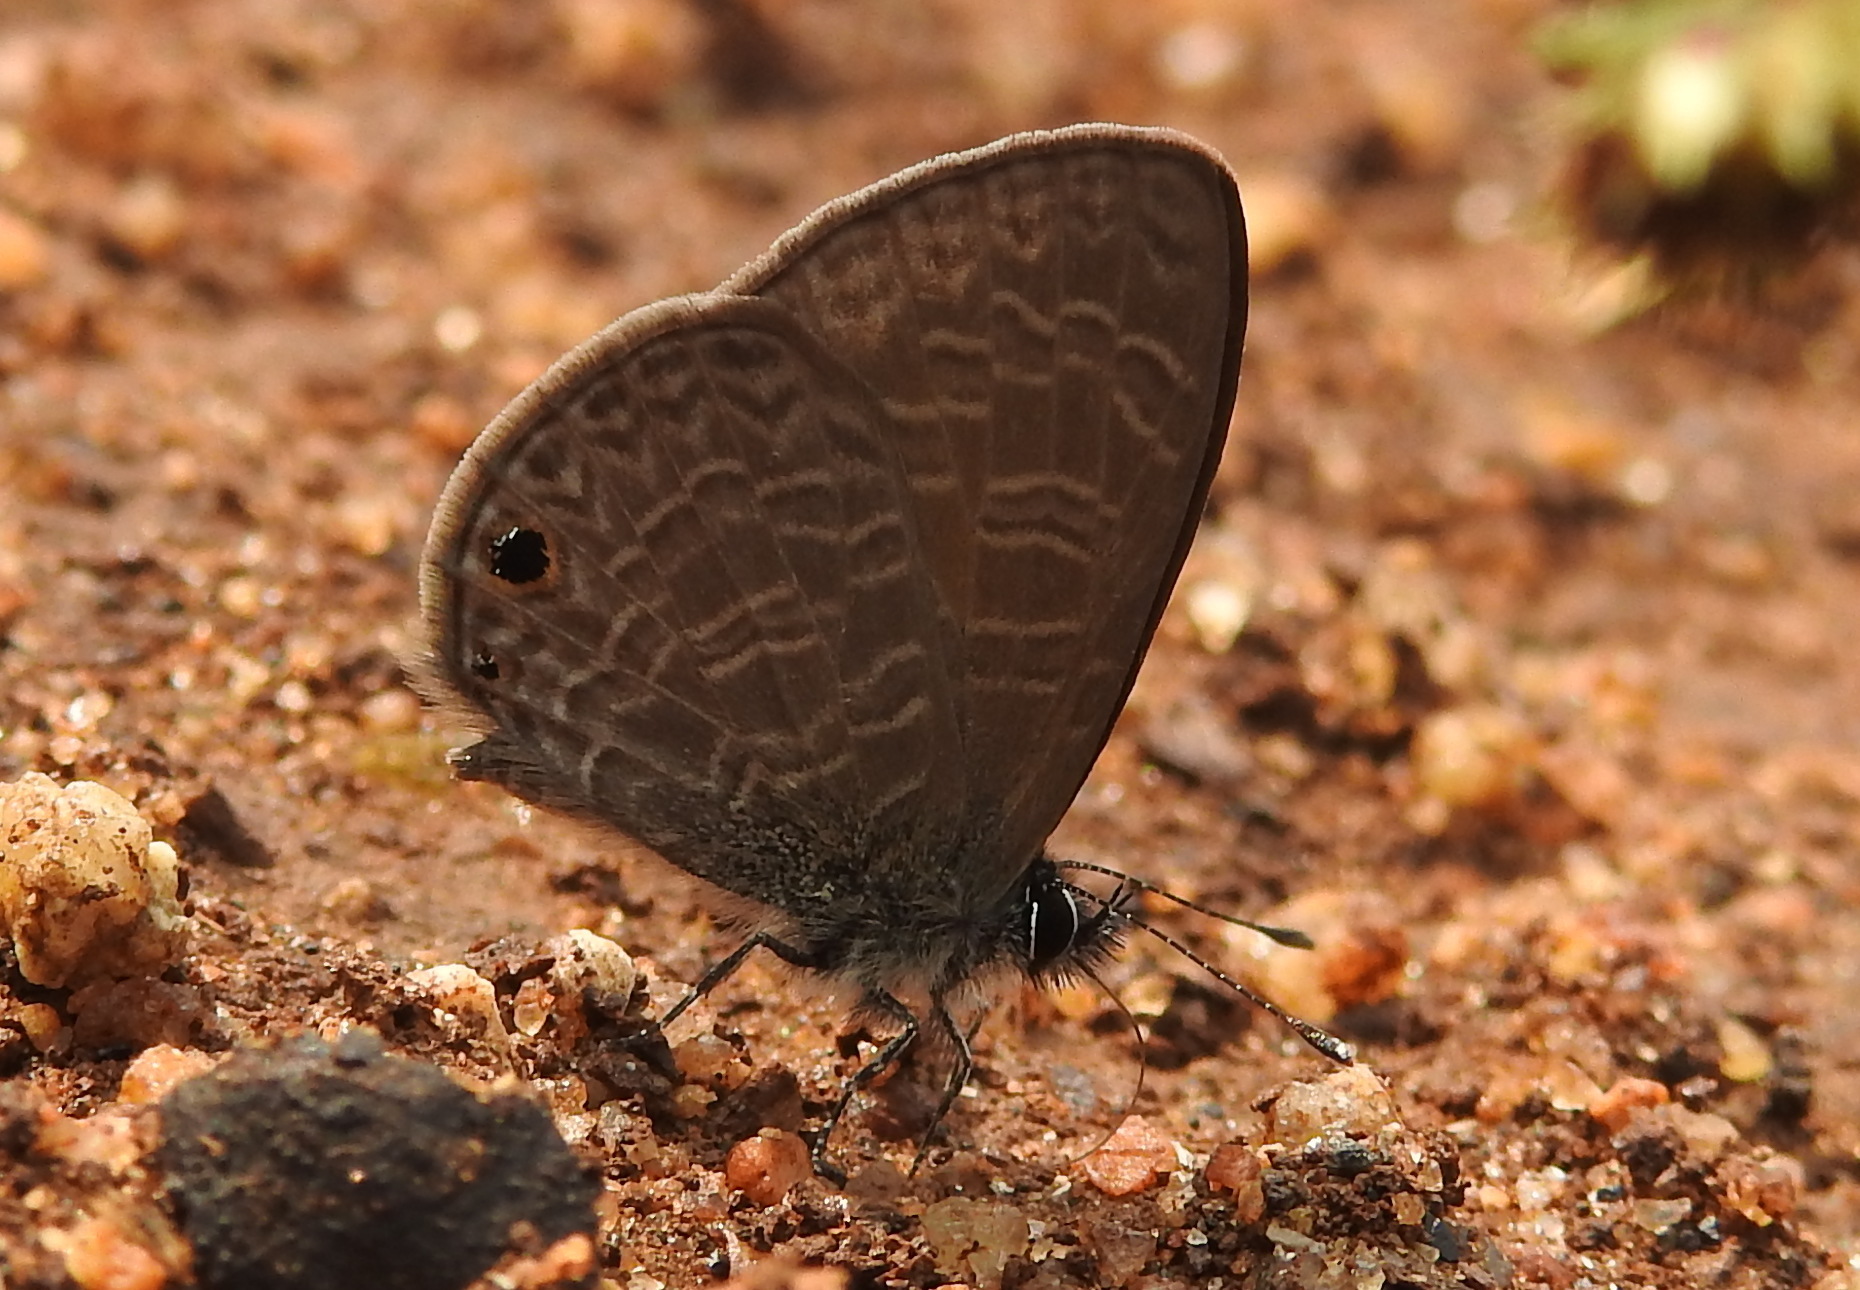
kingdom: Animalia
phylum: Arthropoda
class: Insecta
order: Lepidoptera
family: Lycaenidae
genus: Prosotas
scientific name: Prosotas dubiosa
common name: Tailless lineblue
